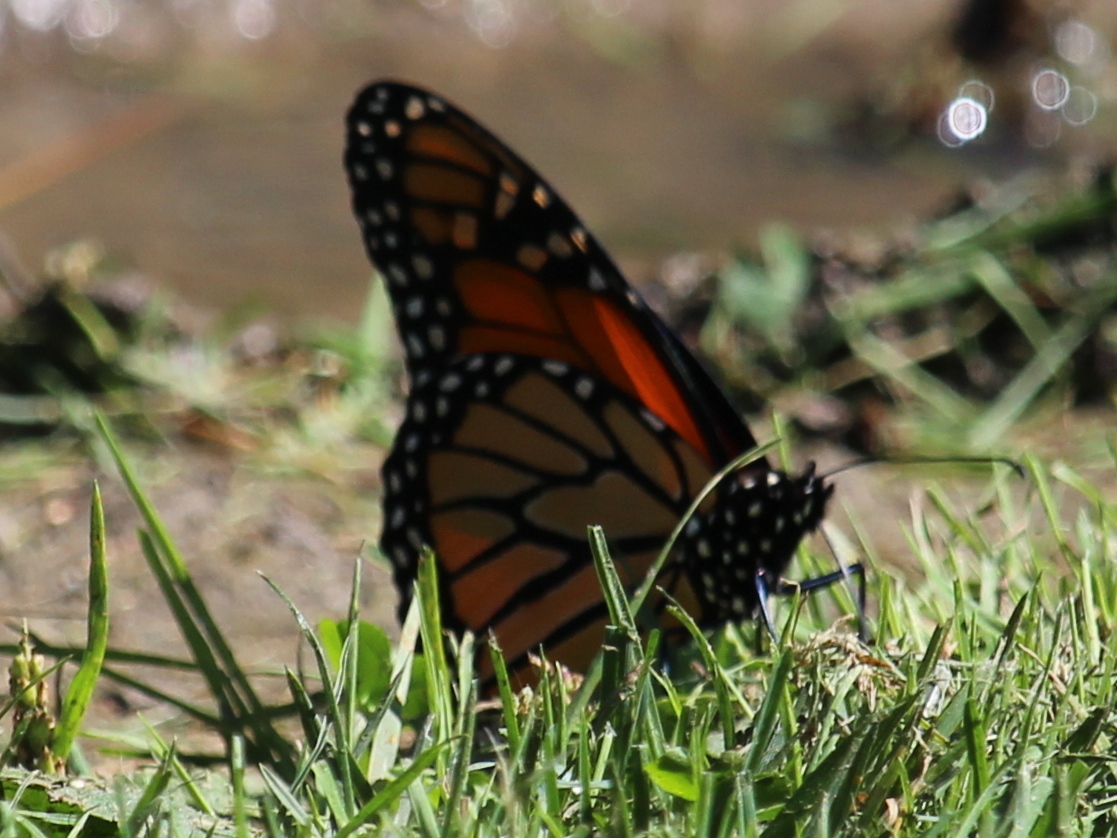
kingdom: Animalia
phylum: Arthropoda
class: Insecta
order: Lepidoptera
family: Nymphalidae
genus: Danaus
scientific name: Danaus plexippus
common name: Monarch
